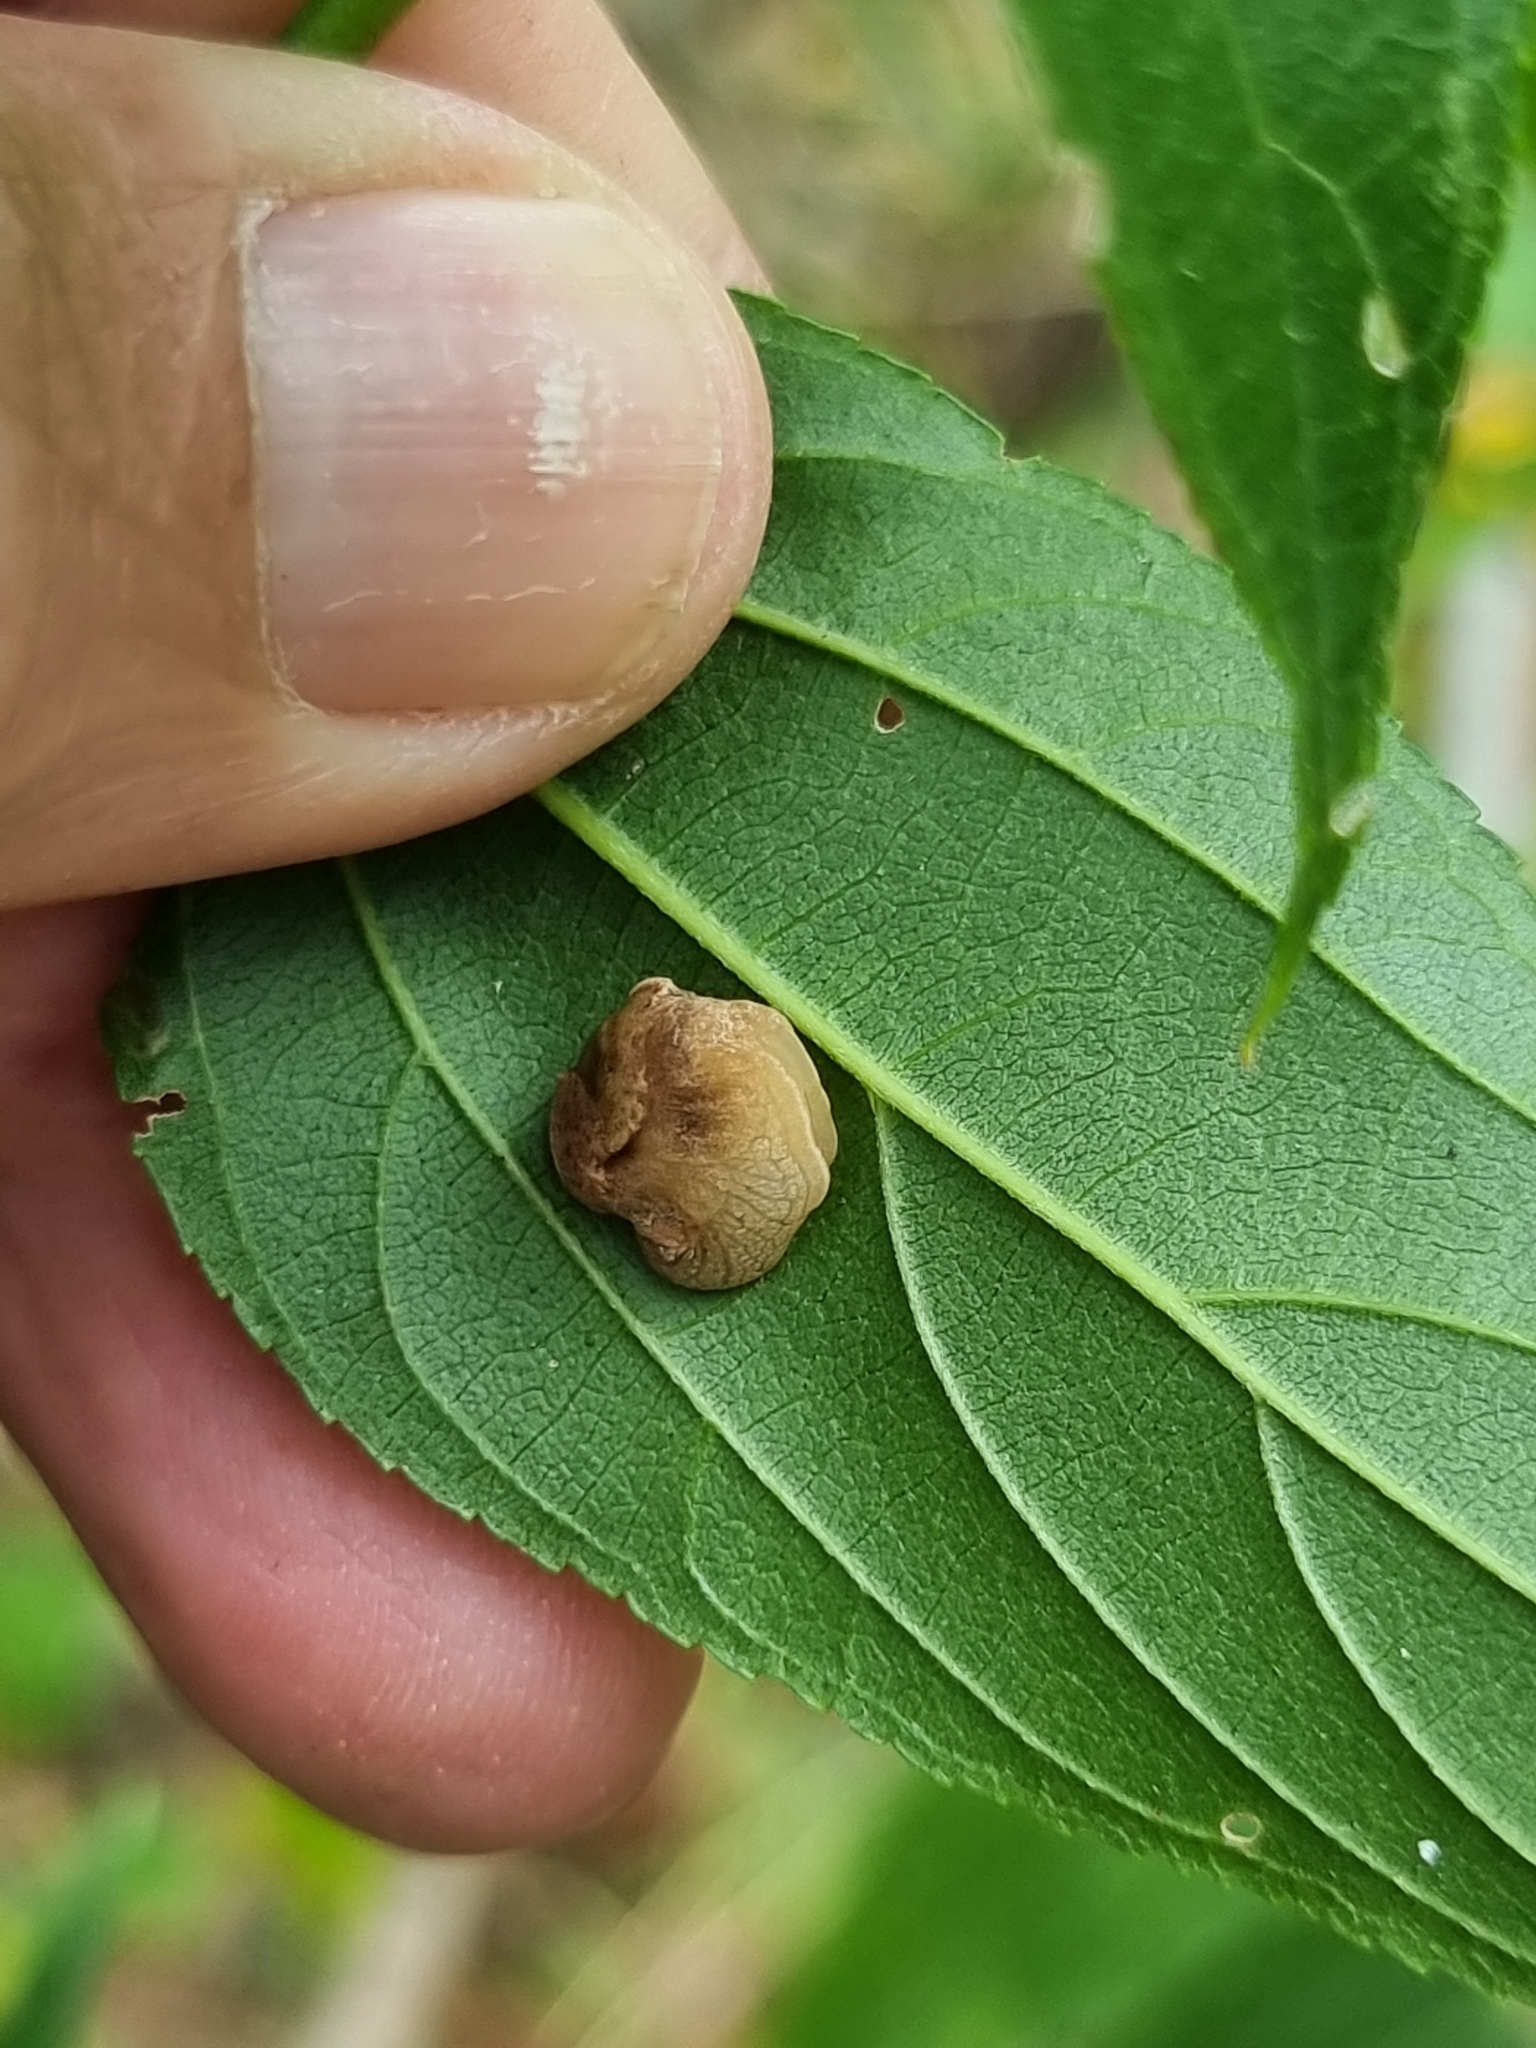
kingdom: Animalia
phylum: Mollusca
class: Gastropoda
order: Stylommatophora
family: Helicarionidae
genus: Ubiquitarion
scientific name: Ubiquitarion iridis
